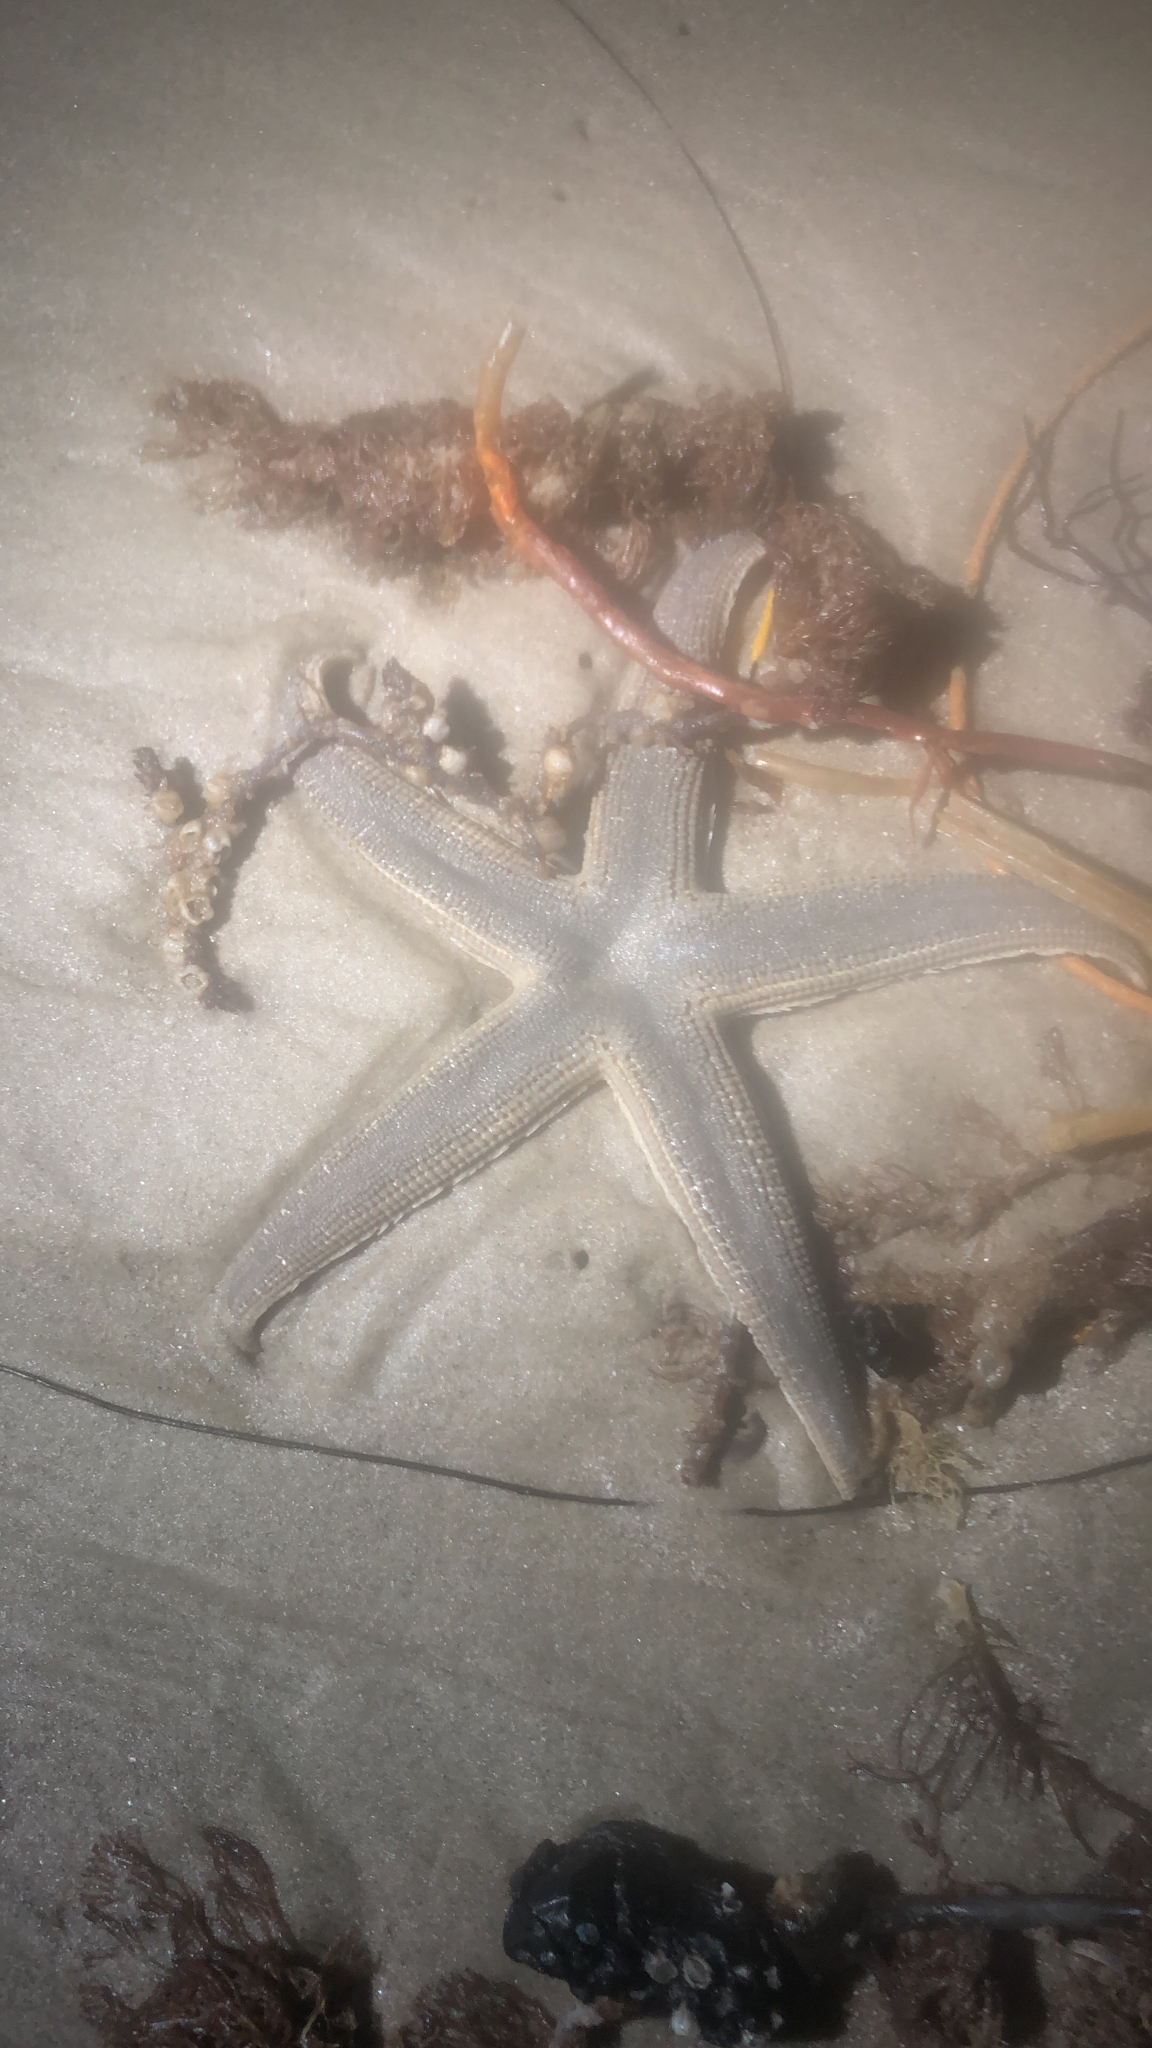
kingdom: Animalia
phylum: Echinodermata
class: Asteroidea
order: Paxillosida
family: Luidiidae
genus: Luidia
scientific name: Luidia clathrata
